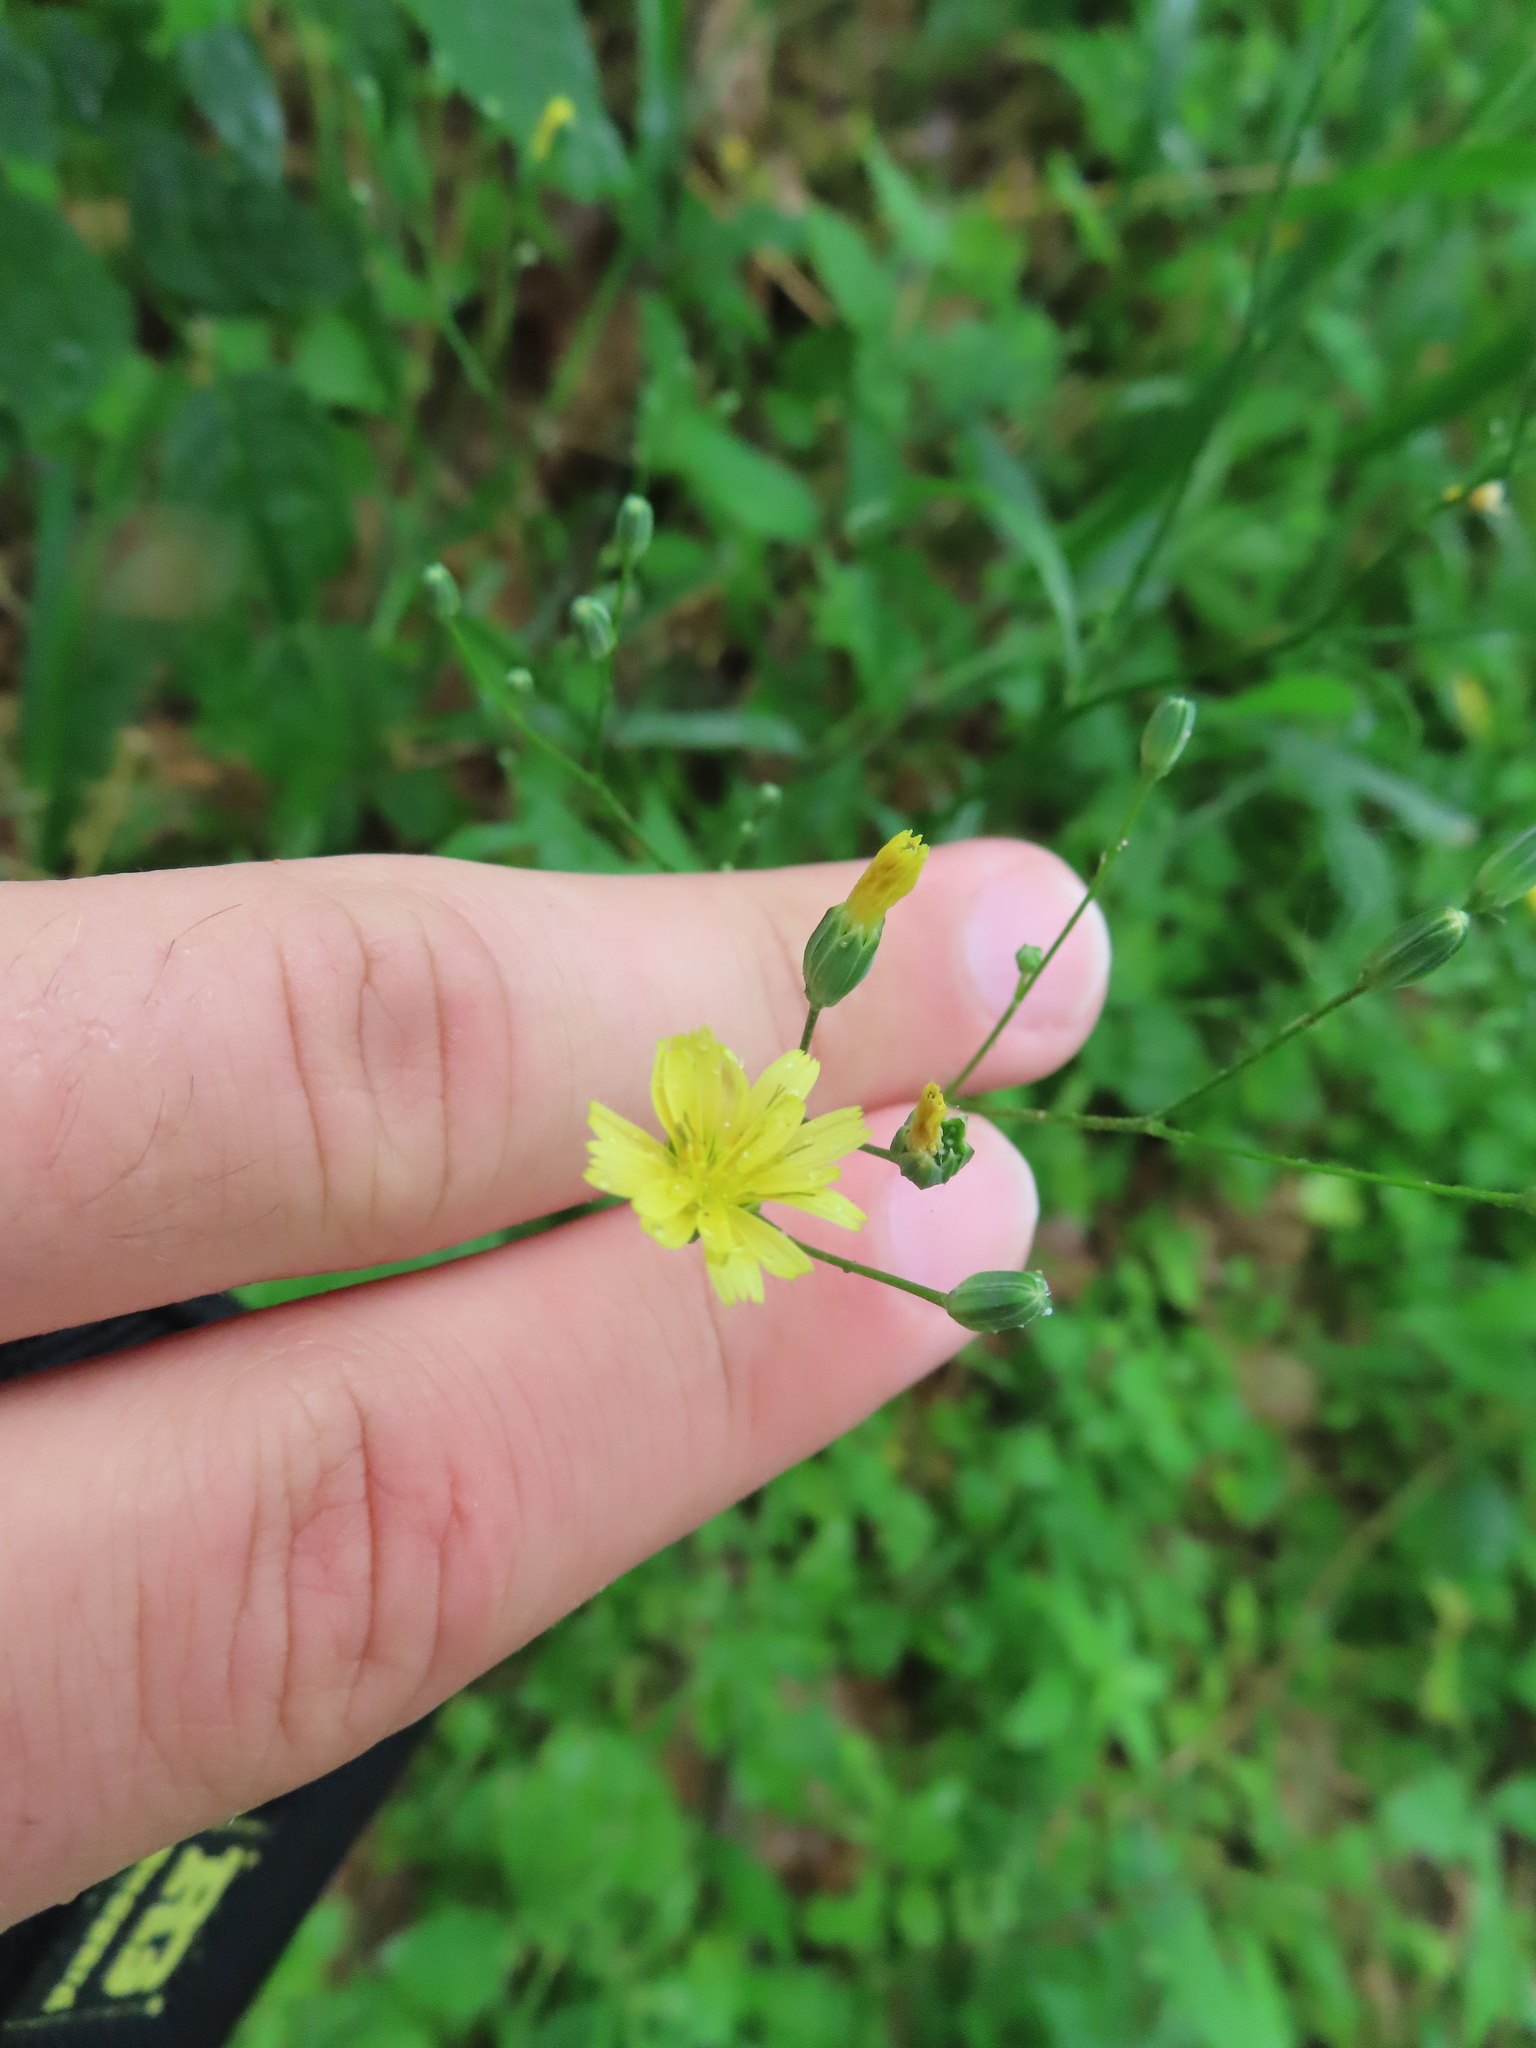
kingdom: Plantae
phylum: Tracheophyta
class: Magnoliopsida
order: Asterales
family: Asteraceae
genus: Lapsana
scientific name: Lapsana communis
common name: Nipplewort
